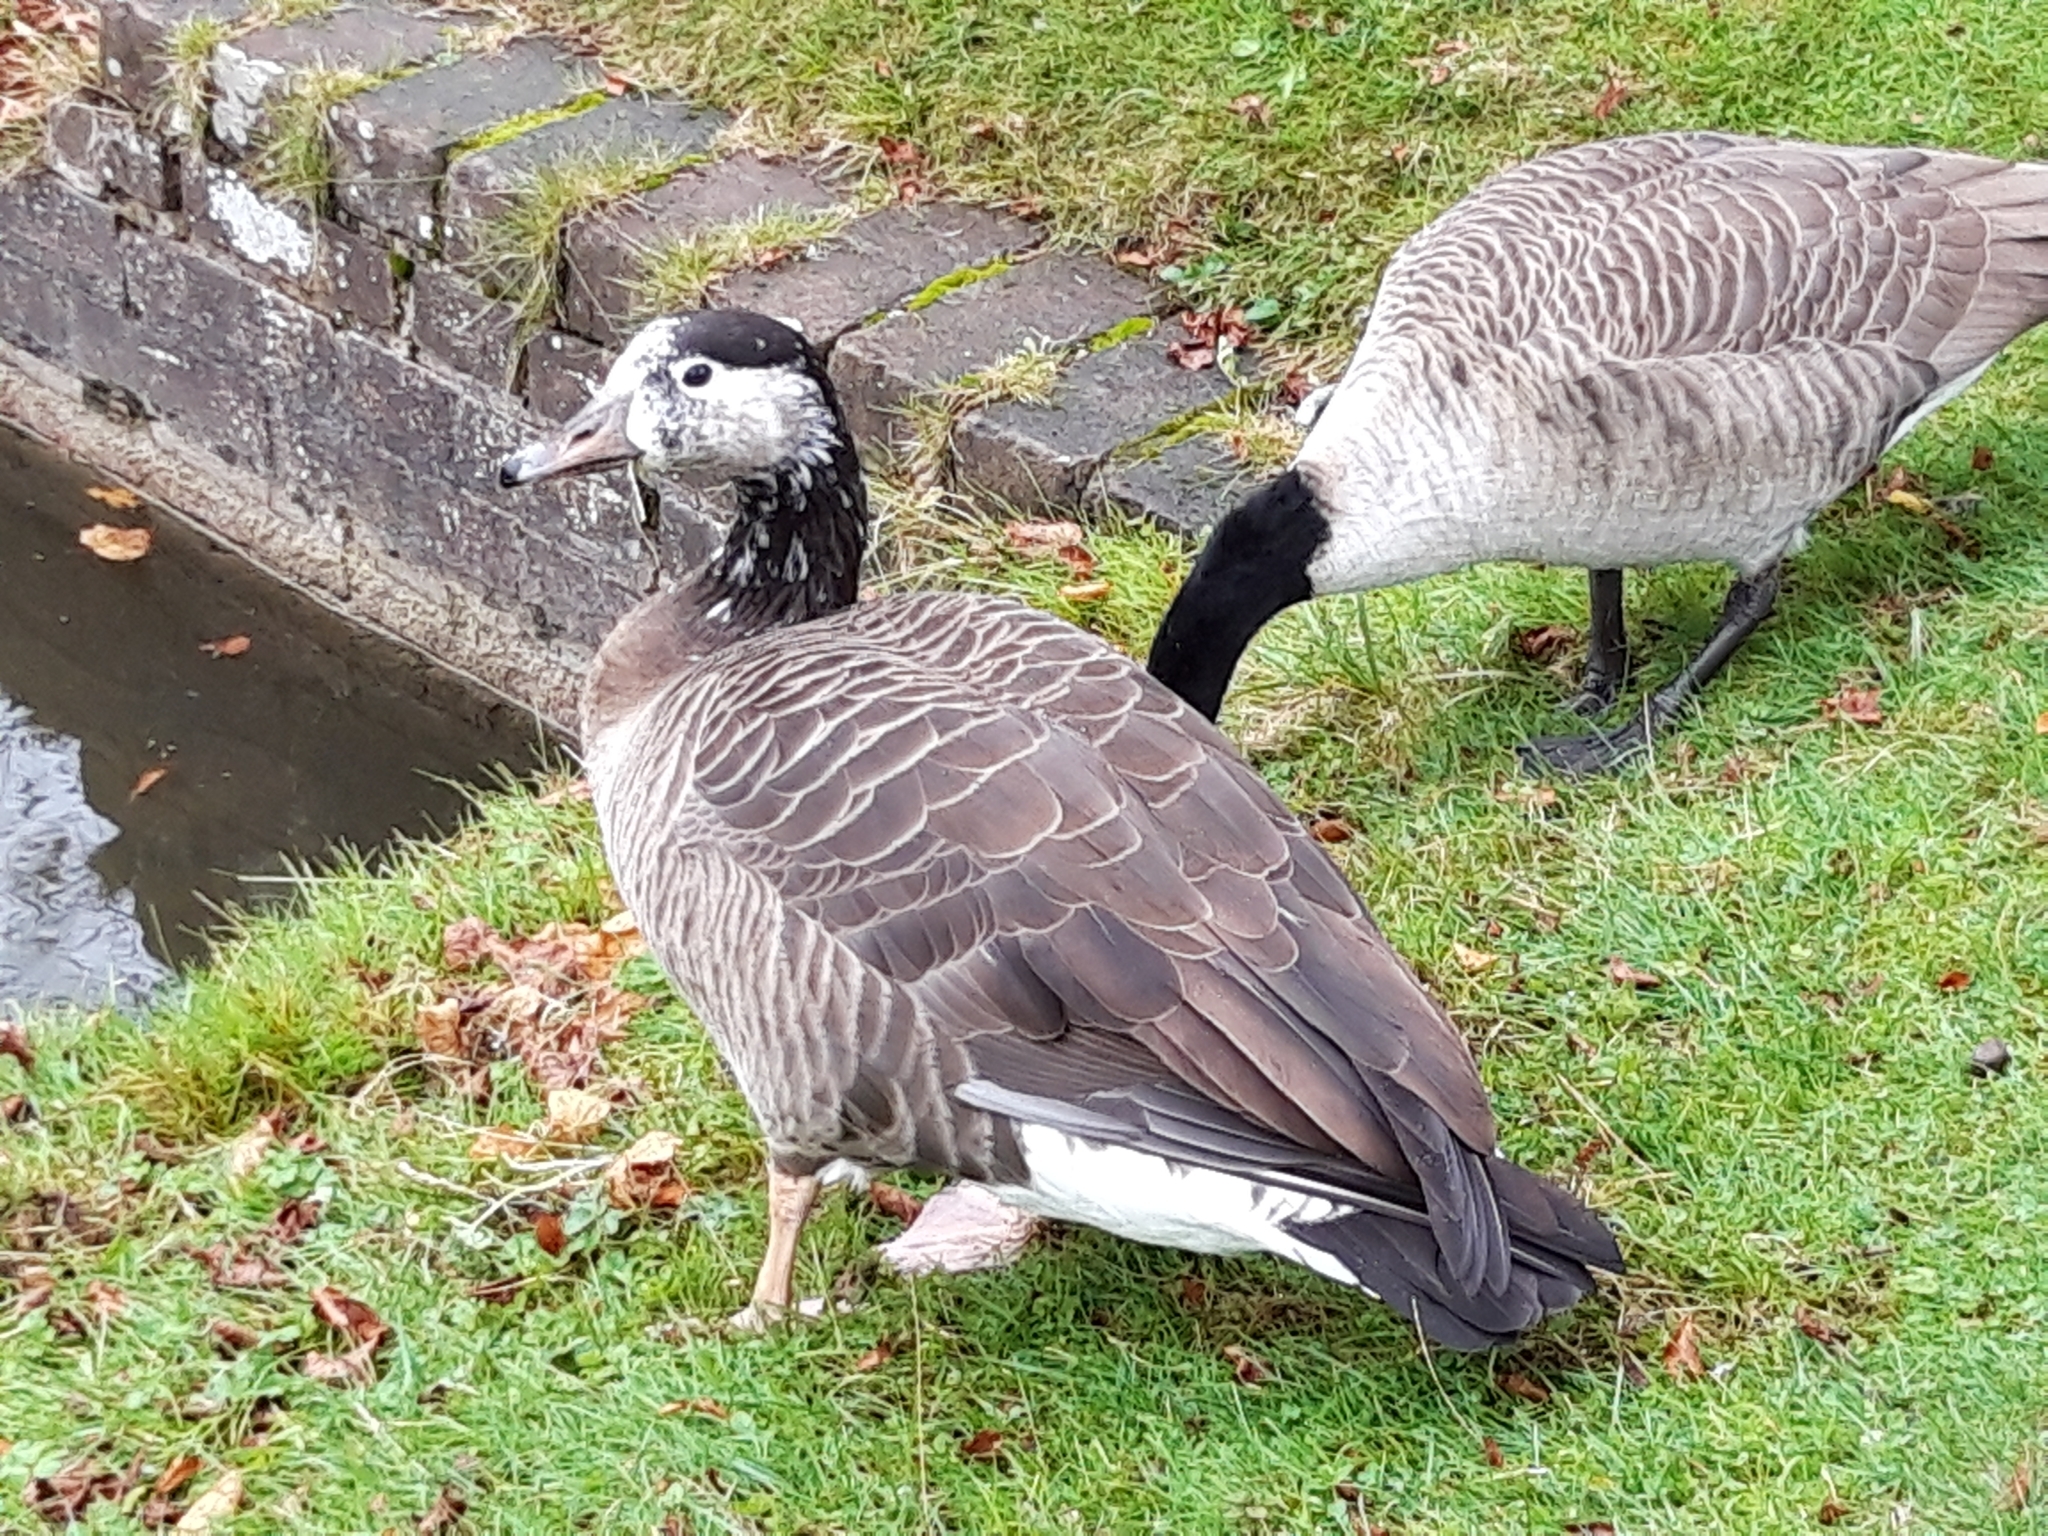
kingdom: Animalia
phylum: Chordata
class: Aves
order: Anseriformes
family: Anatidae
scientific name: Anatidae
